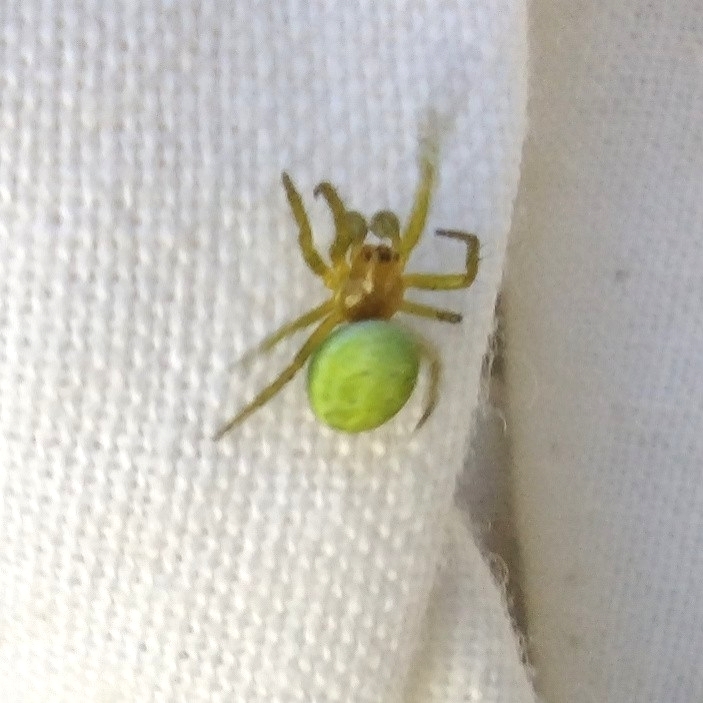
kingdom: Animalia
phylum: Arthropoda
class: Arachnida
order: Araneae
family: Araneidae
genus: Araniella
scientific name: Araniella cucurbitina
